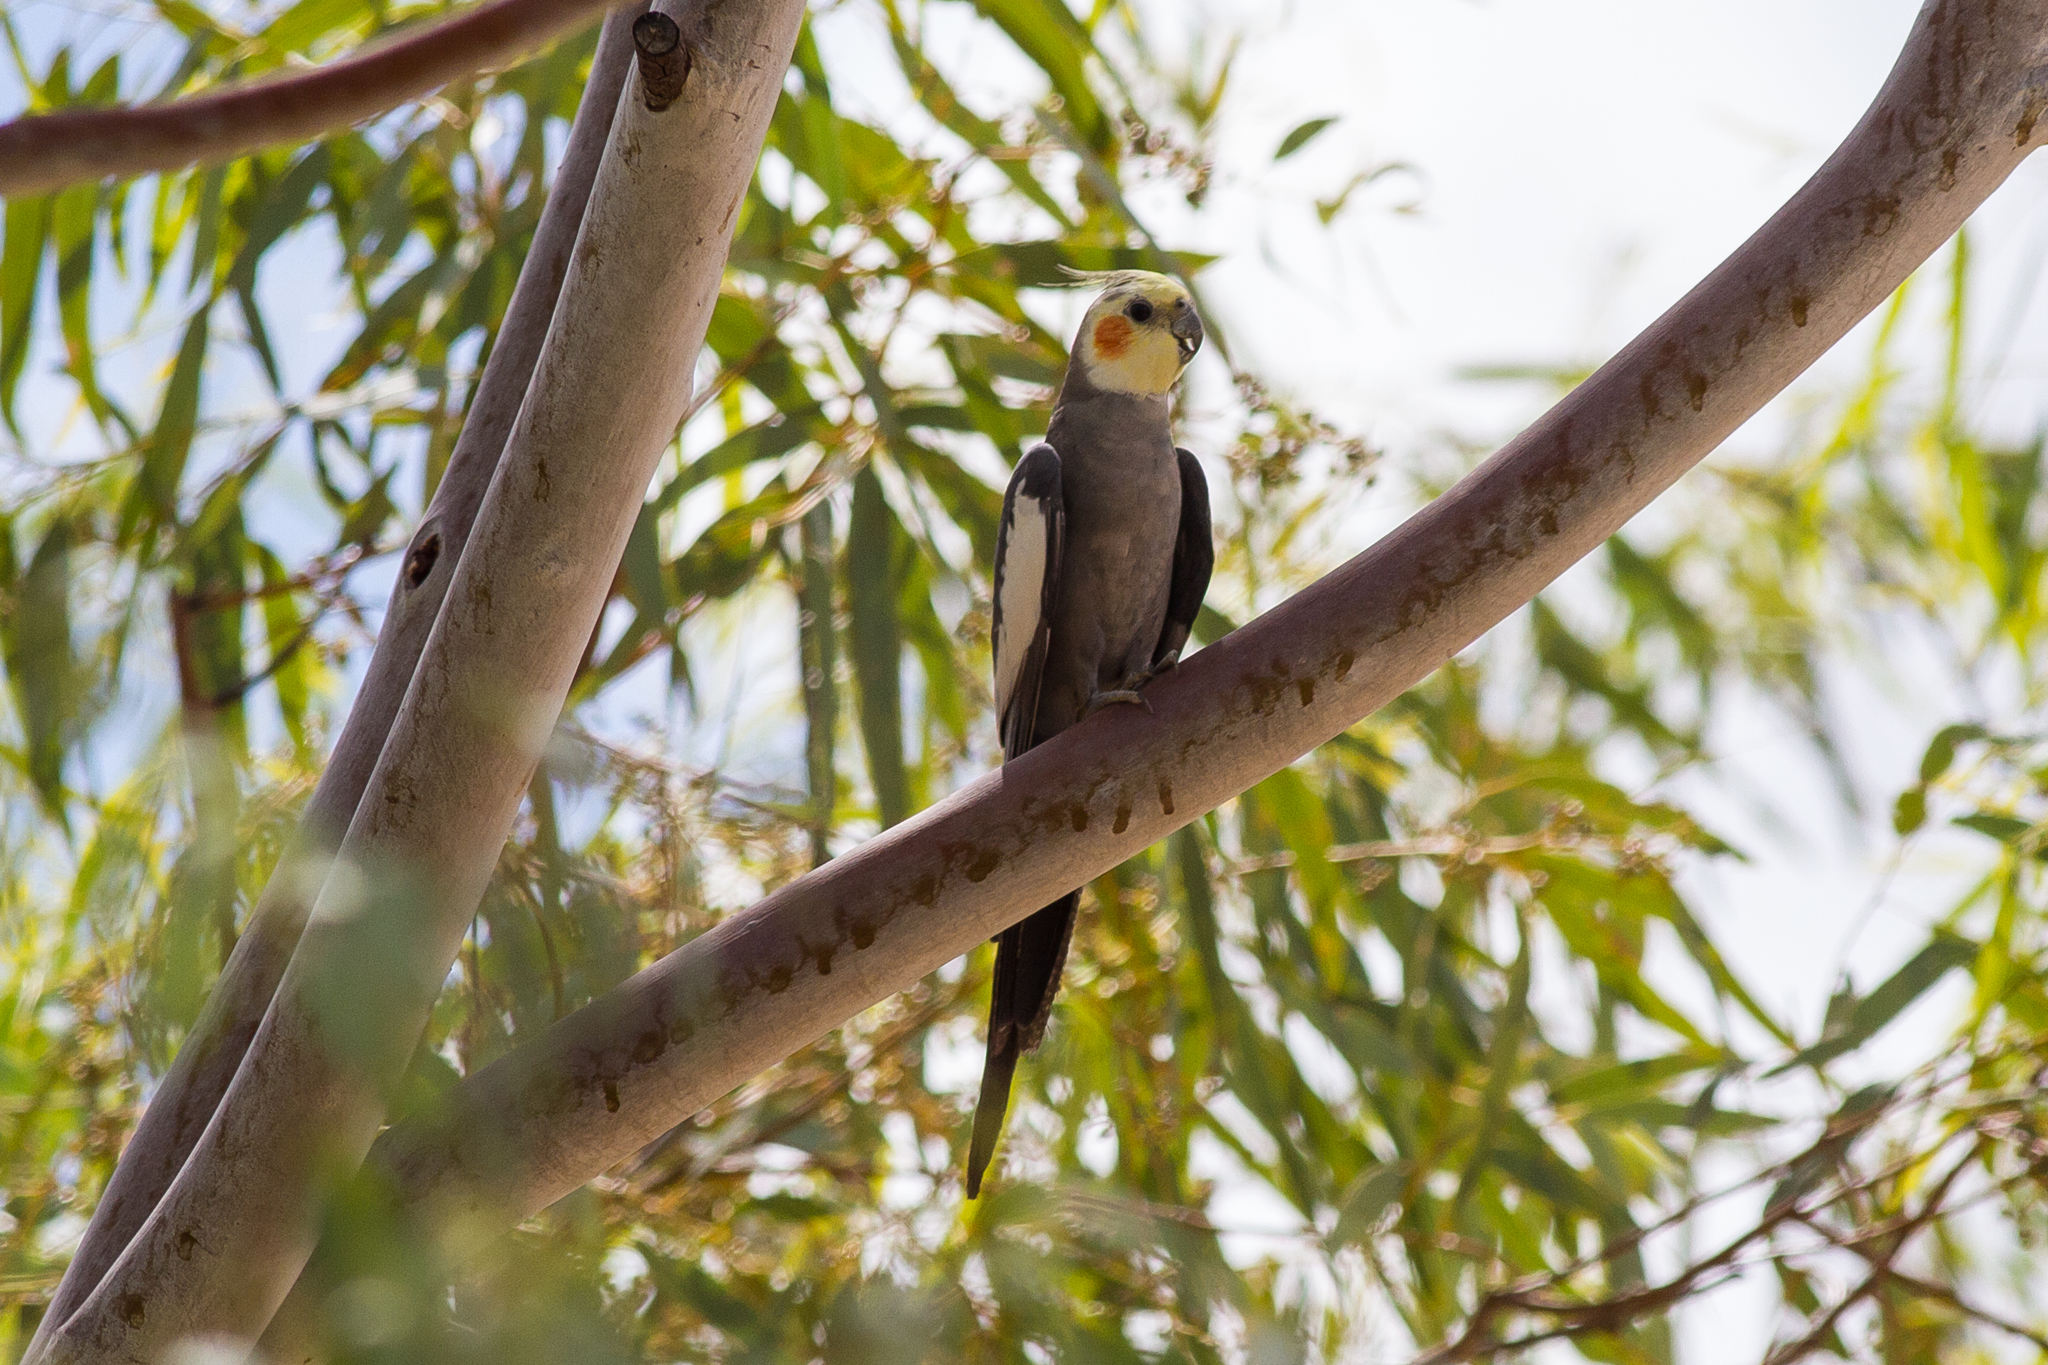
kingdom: Animalia
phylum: Chordata
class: Aves
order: Psittaciformes
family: Psittacidae
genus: Nymphicus
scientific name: Nymphicus hollandicus
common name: Cockatiel
